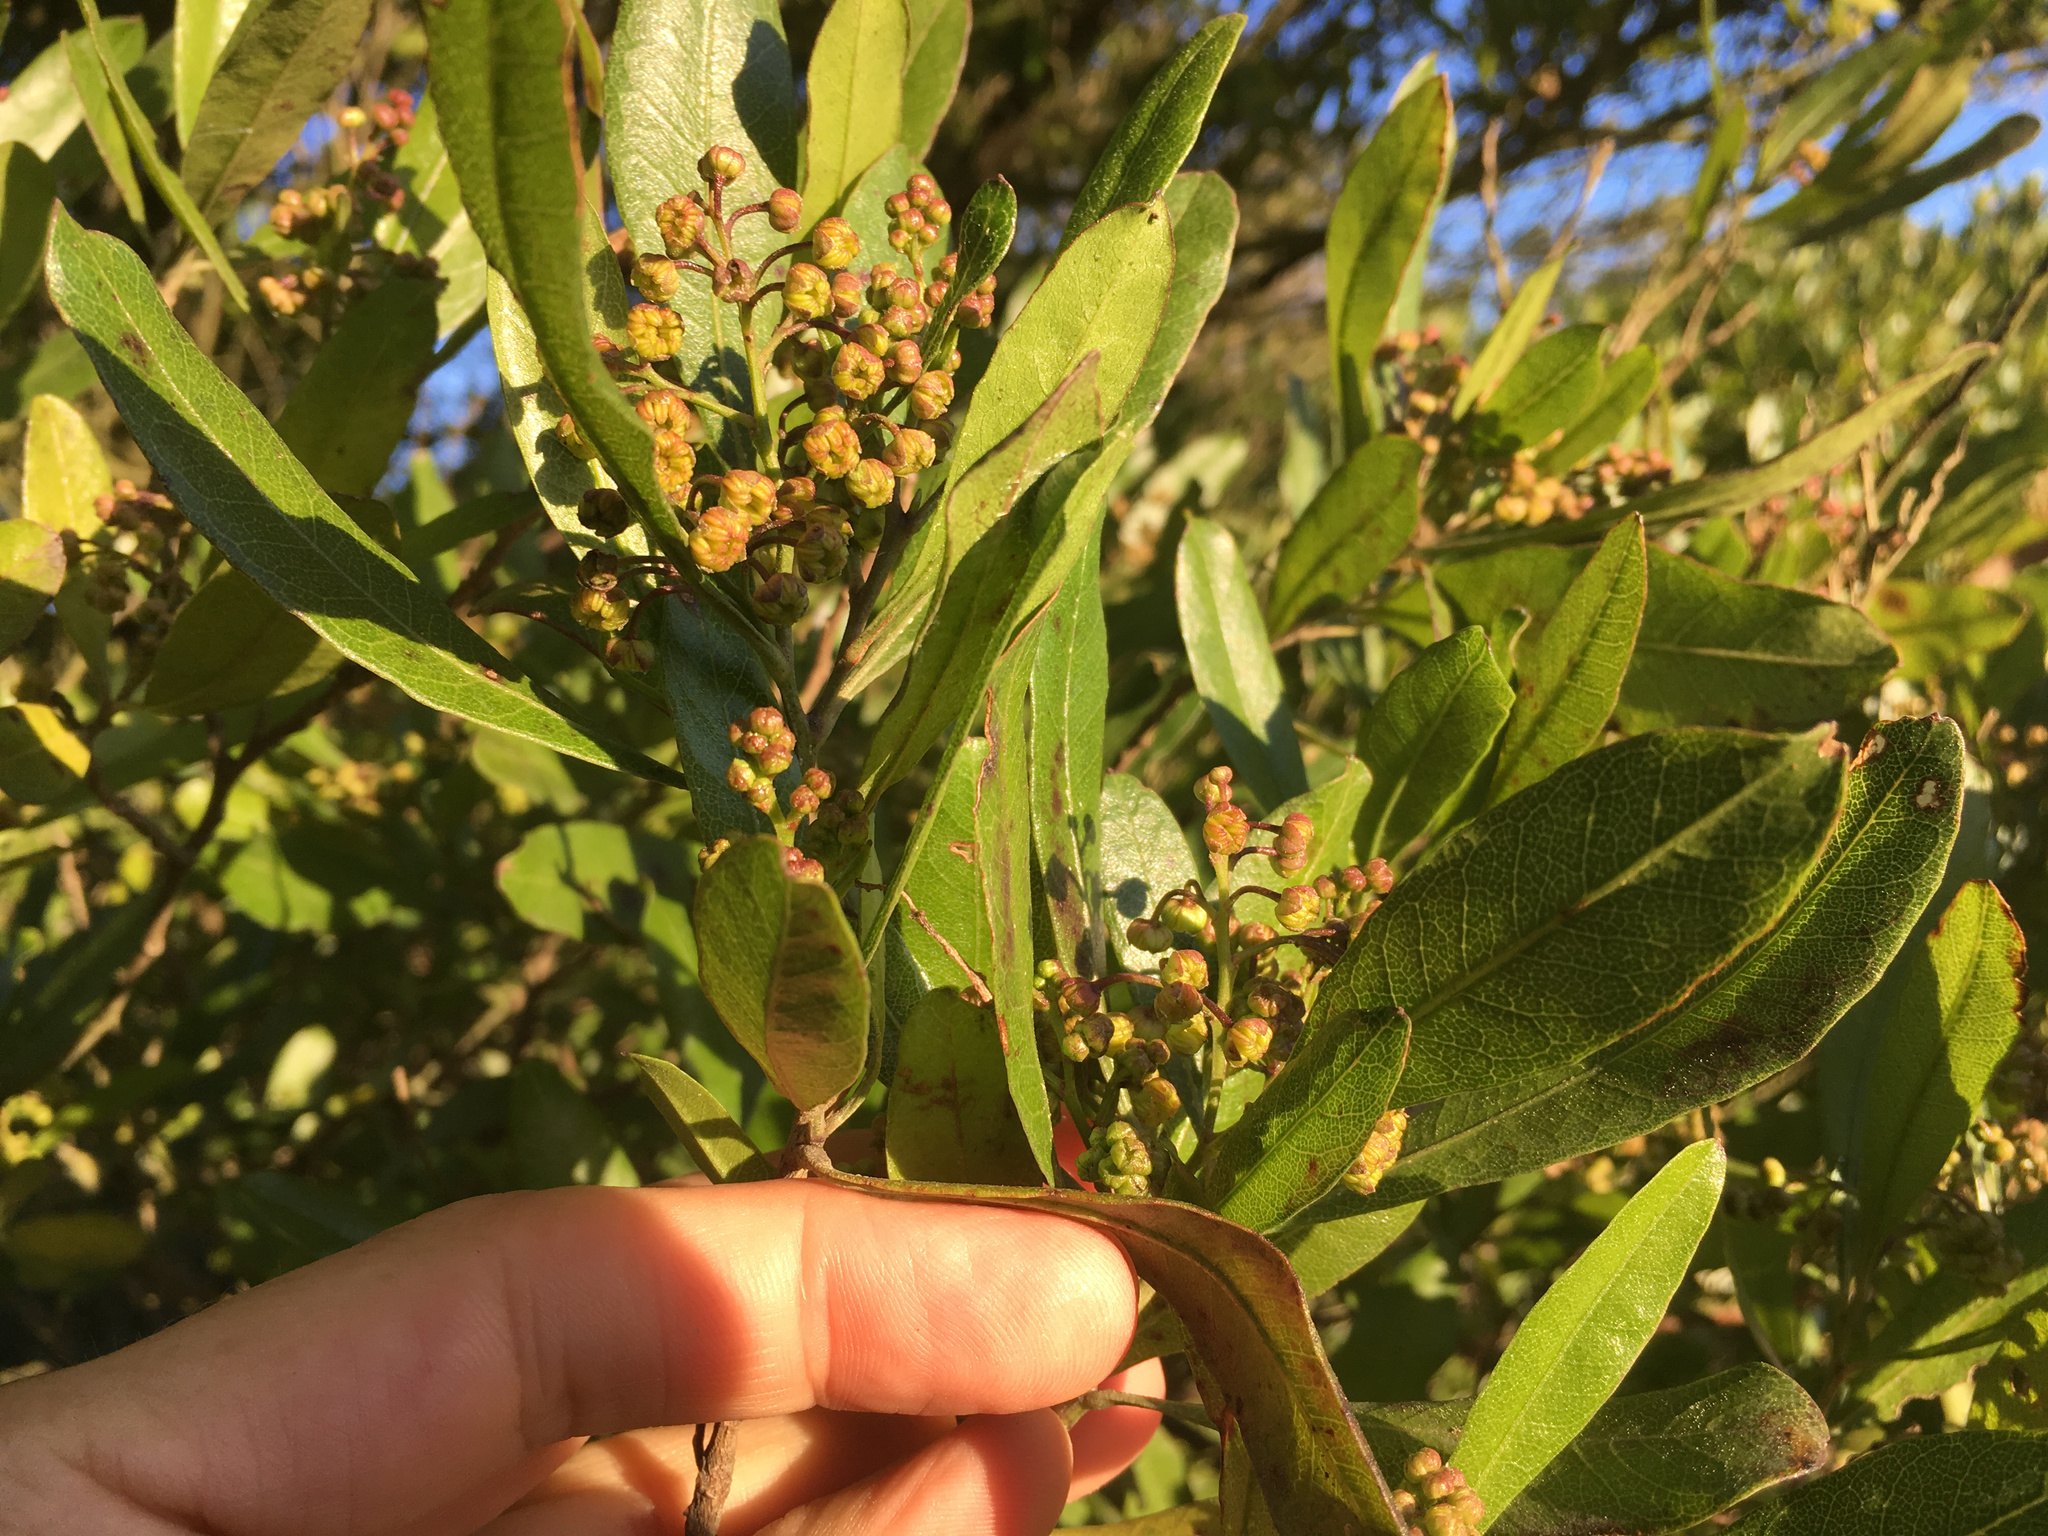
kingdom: Plantae
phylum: Tracheophyta
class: Magnoliopsida
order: Sapindales
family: Sapindaceae
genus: Dodonaea
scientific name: Dodonaea viscosa
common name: Hopbush
